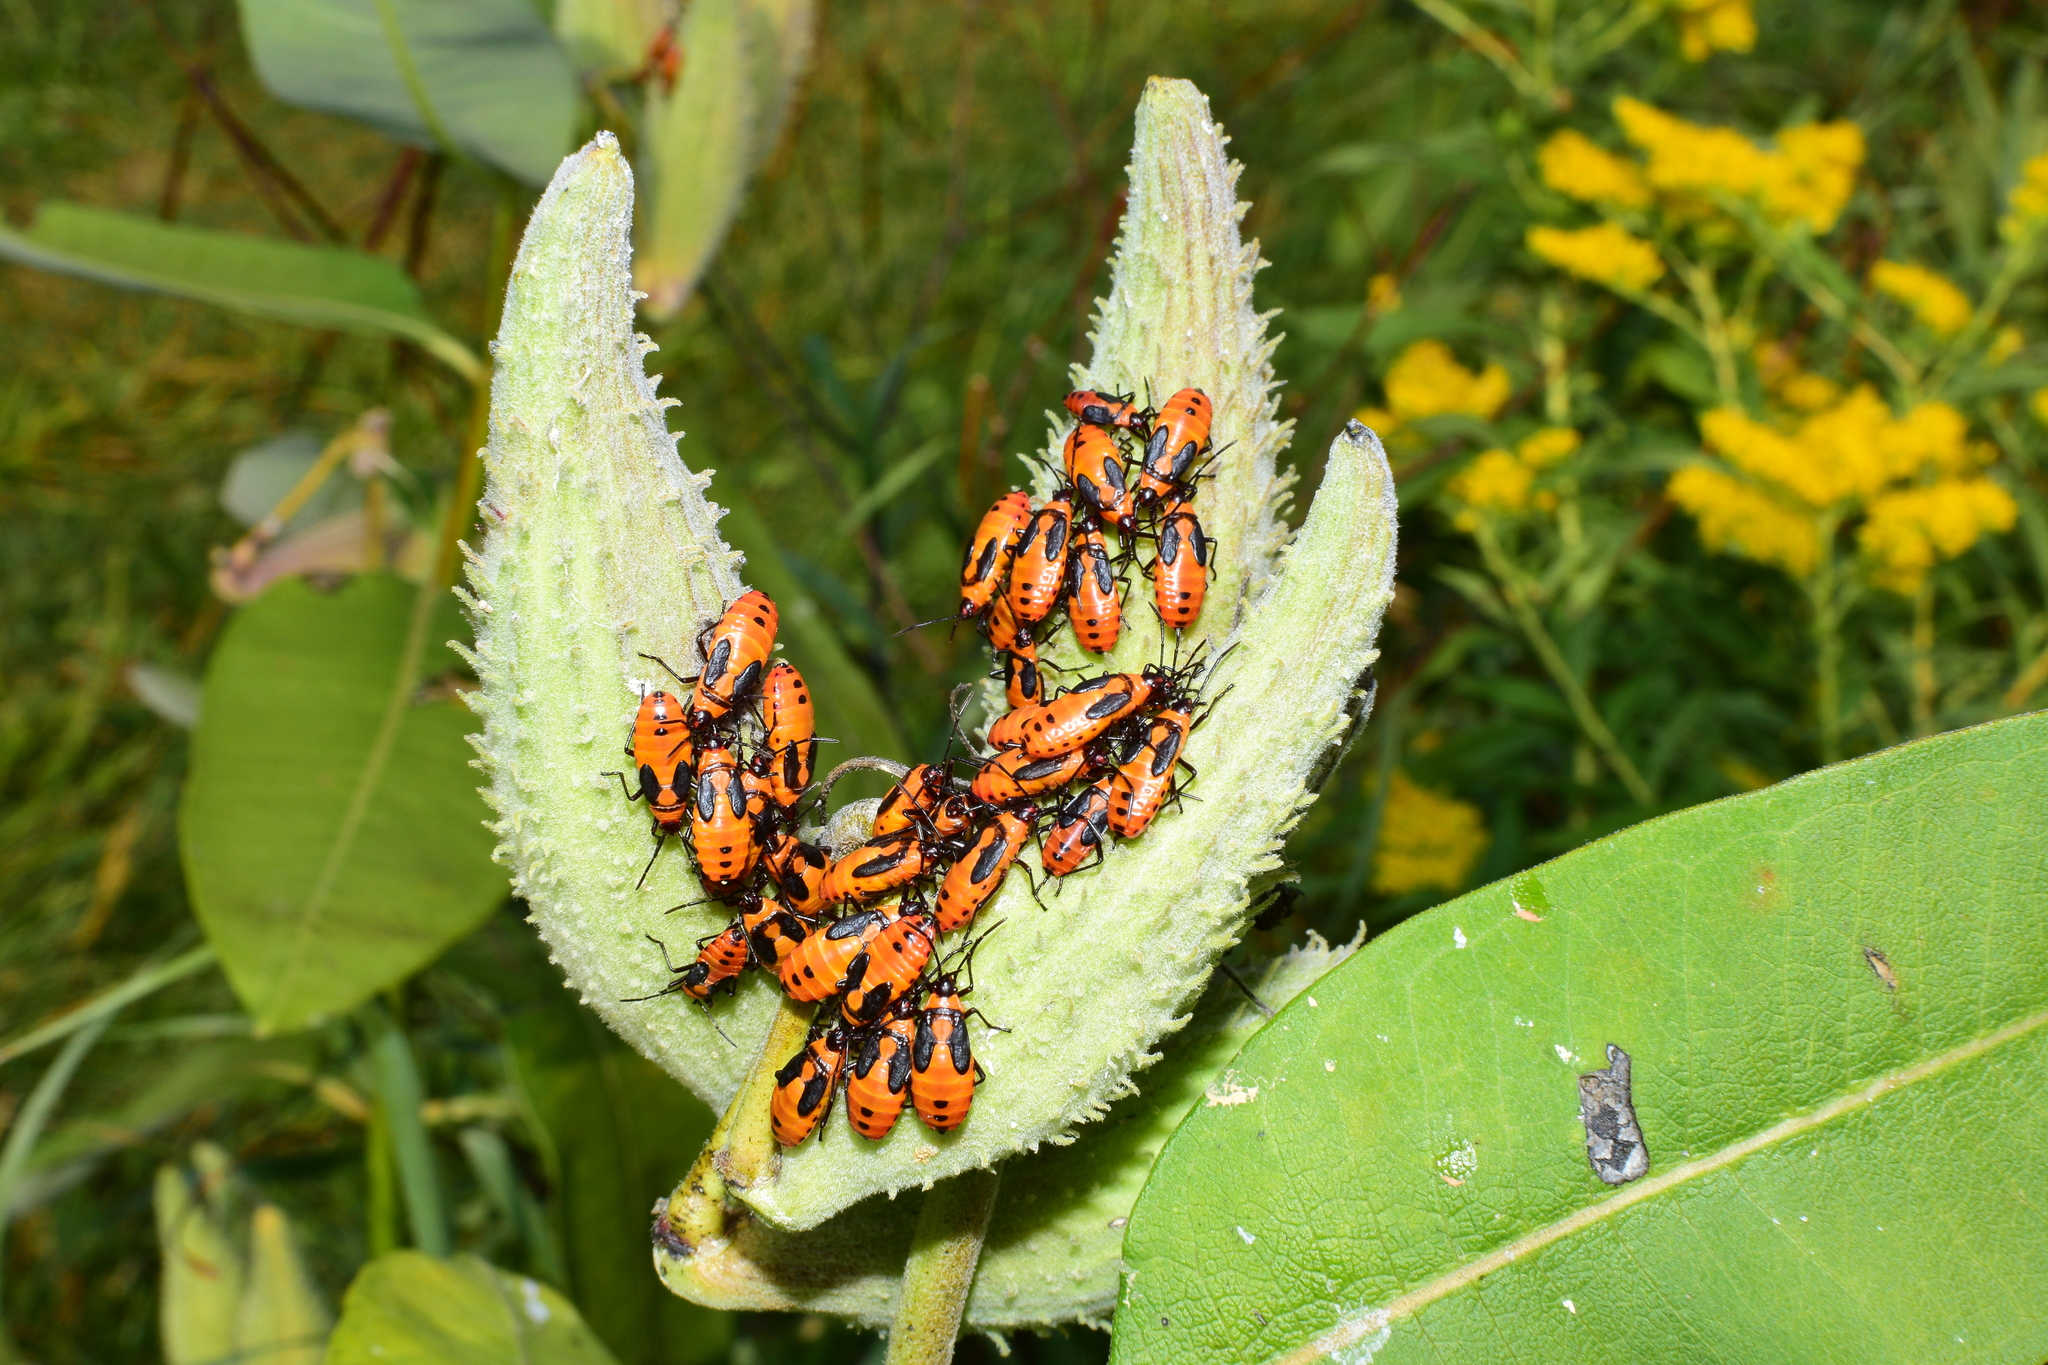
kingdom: Animalia
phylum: Arthropoda
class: Insecta
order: Hemiptera
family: Lygaeidae
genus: Oncopeltus
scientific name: Oncopeltus fasciatus
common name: Large milkweed bug
